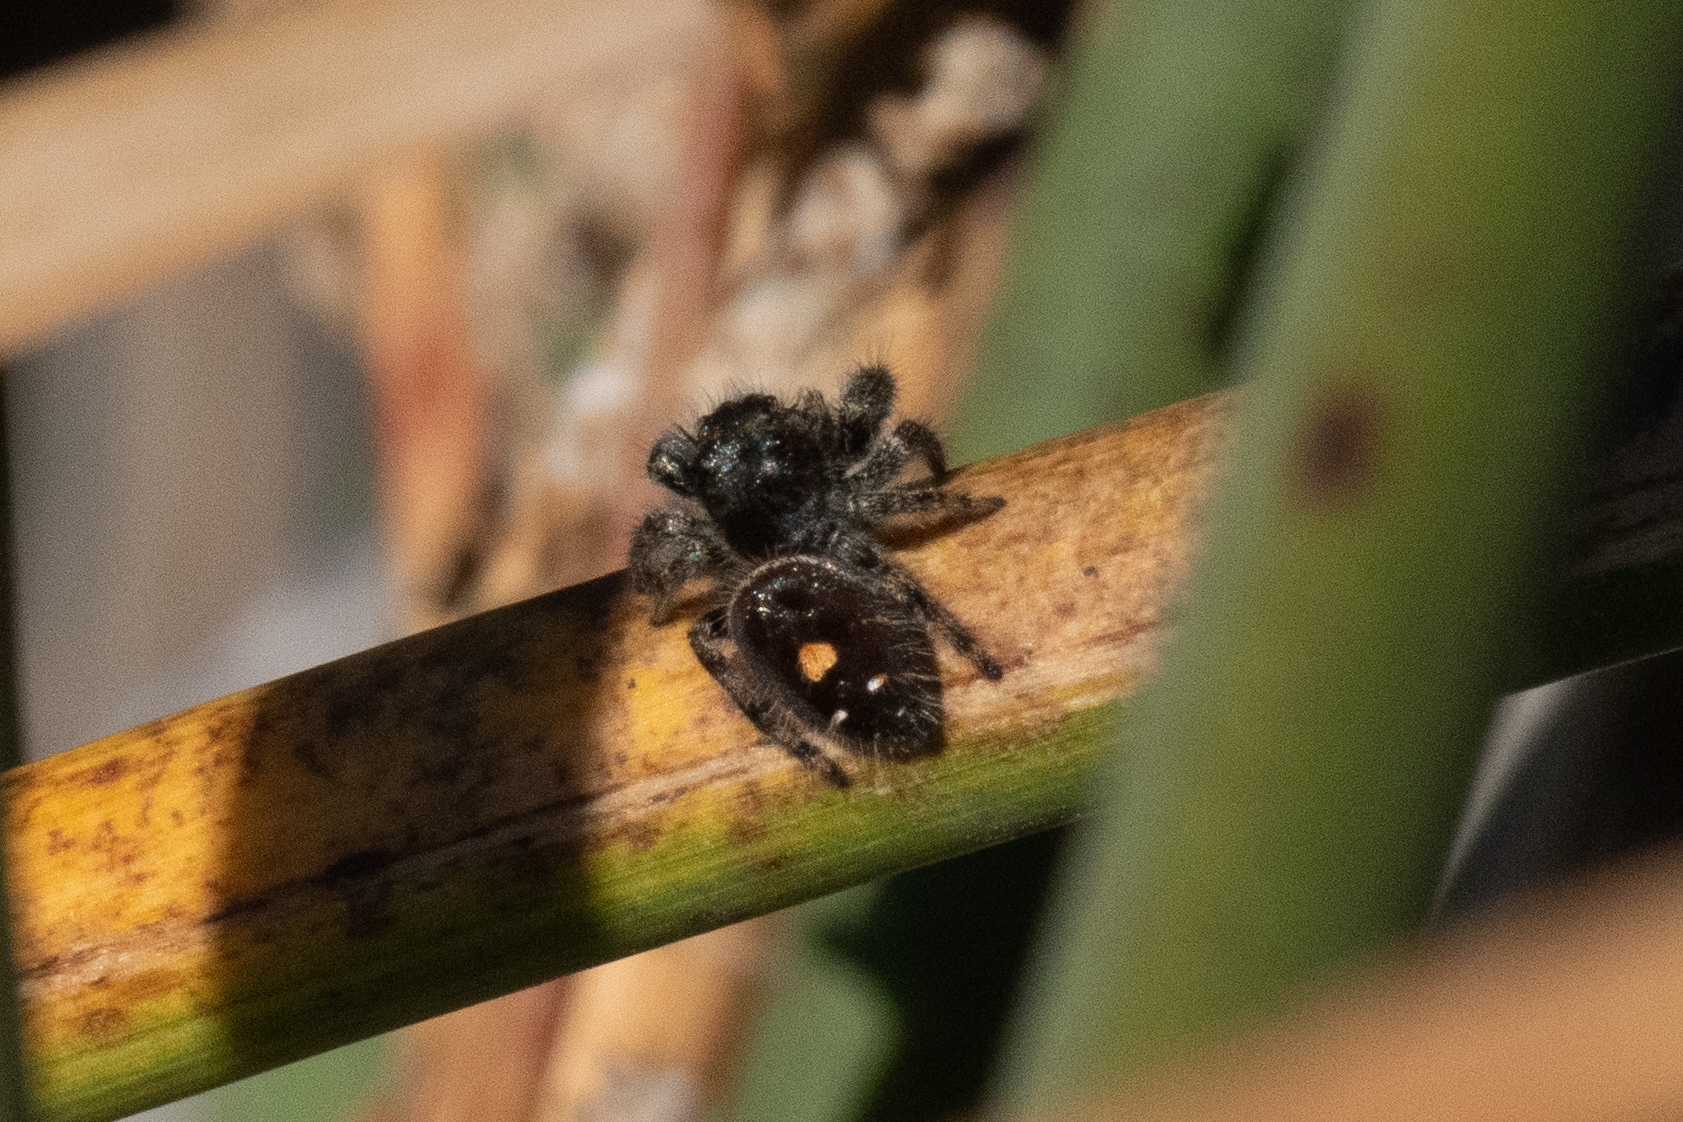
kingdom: Animalia
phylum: Arthropoda
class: Arachnida
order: Araneae
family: Salticidae
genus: Phidippus
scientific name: Phidippus audax
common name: Bold jumper
